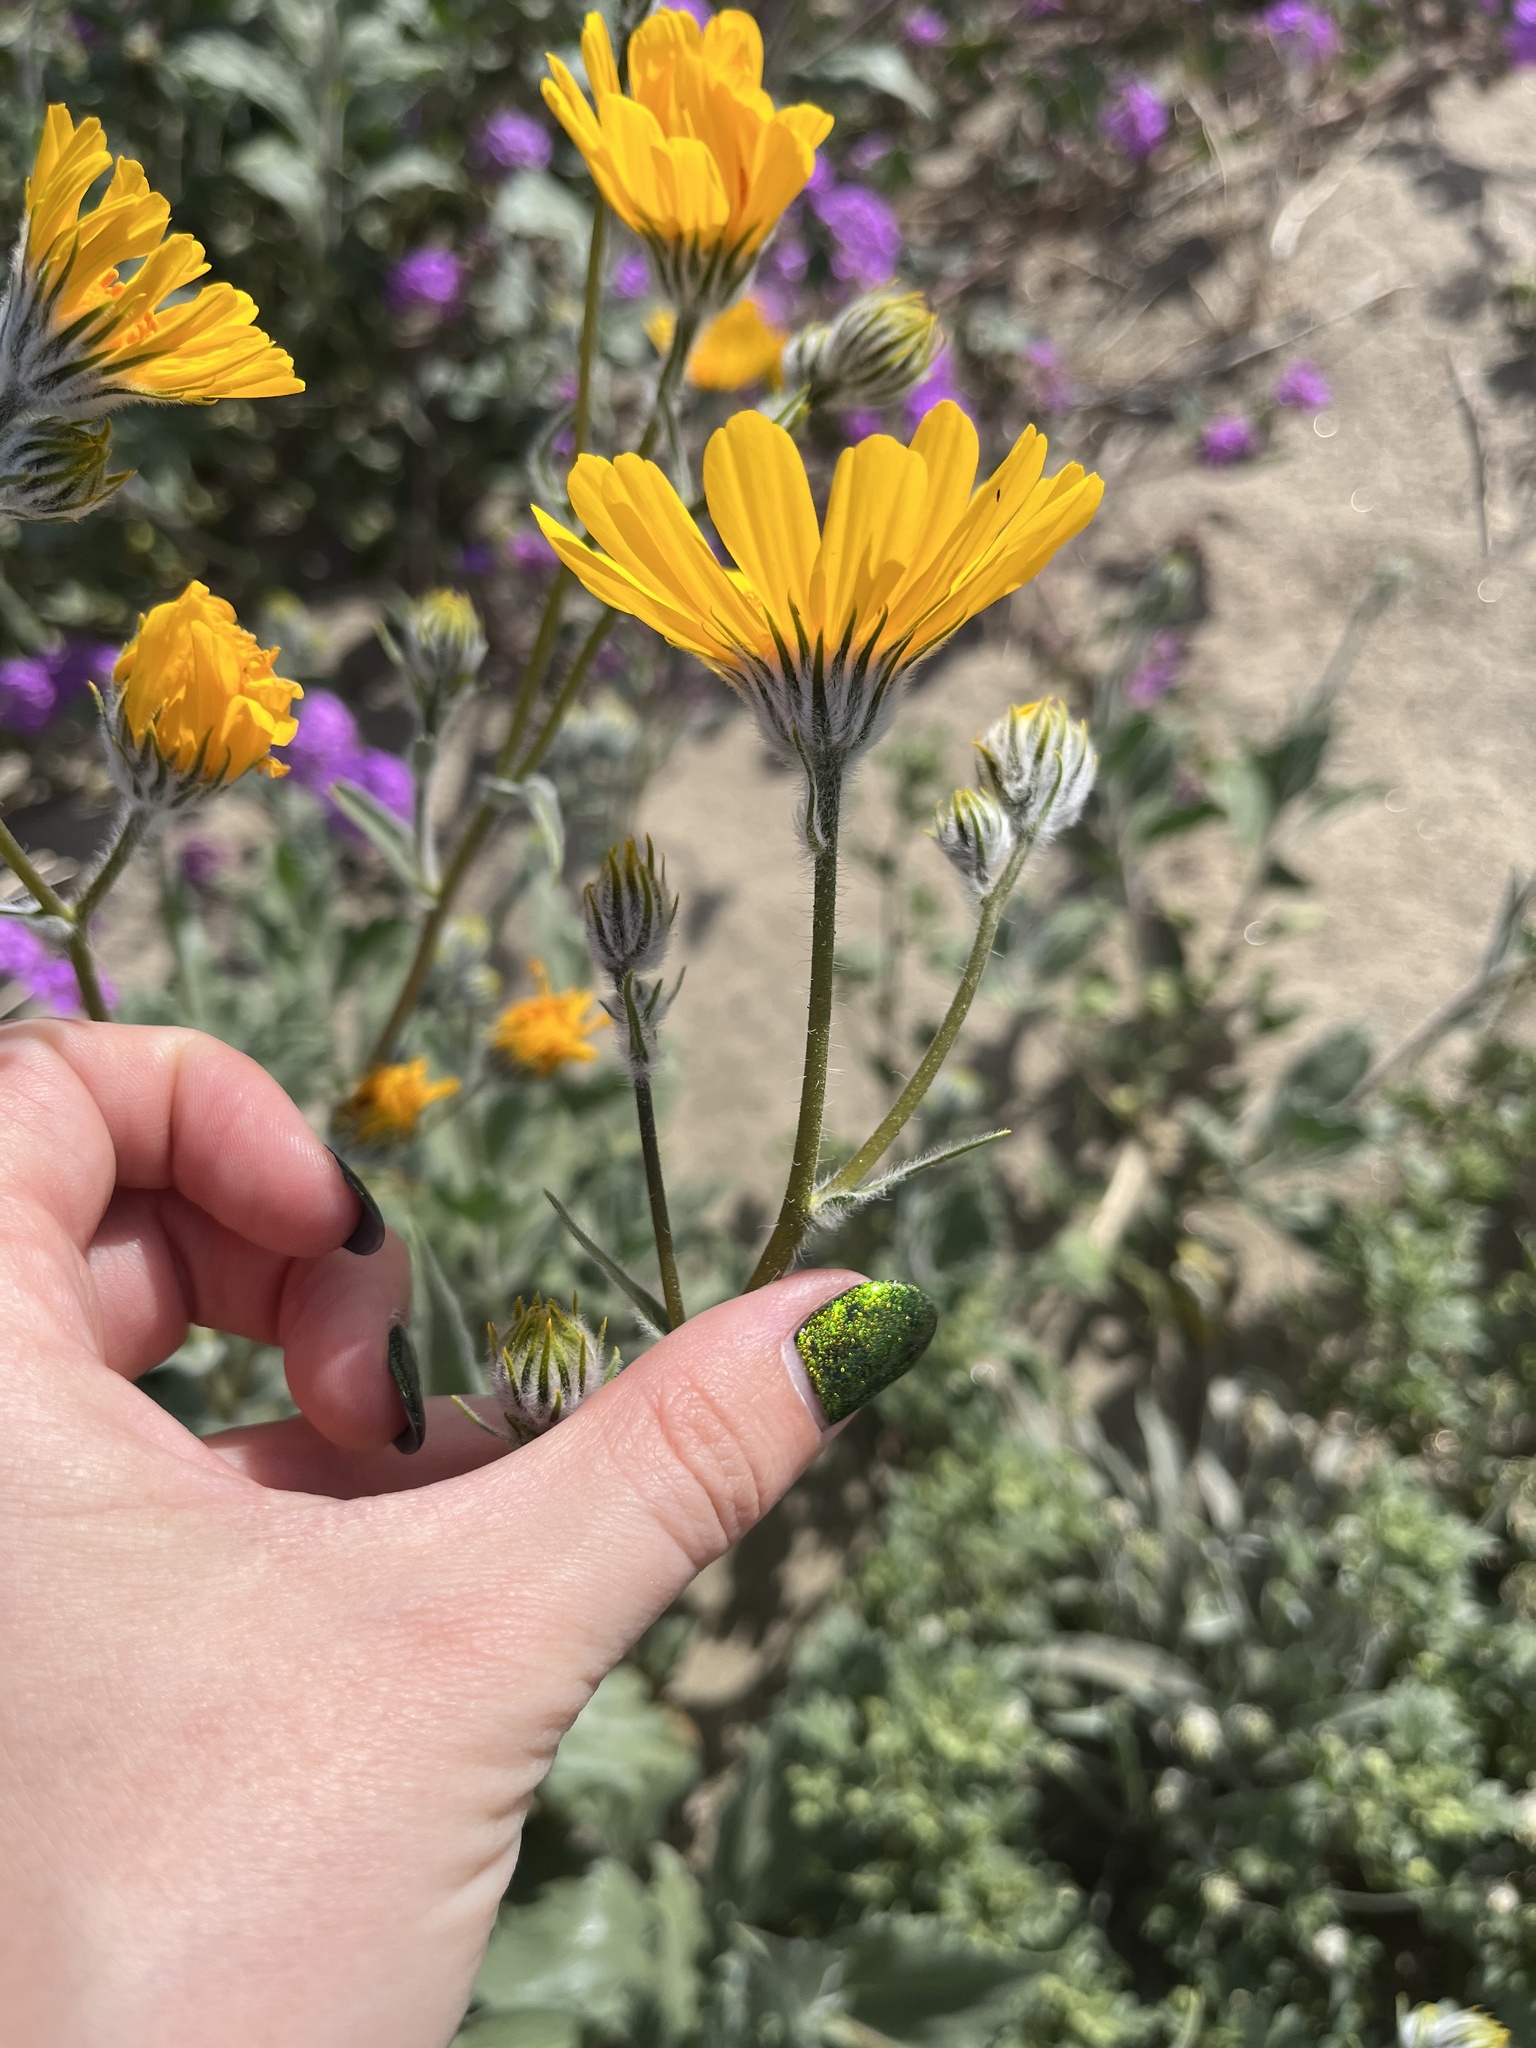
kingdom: Plantae
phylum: Tracheophyta
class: Magnoliopsida
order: Asterales
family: Asteraceae
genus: Geraea
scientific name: Geraea canescens
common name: Desert-gold
